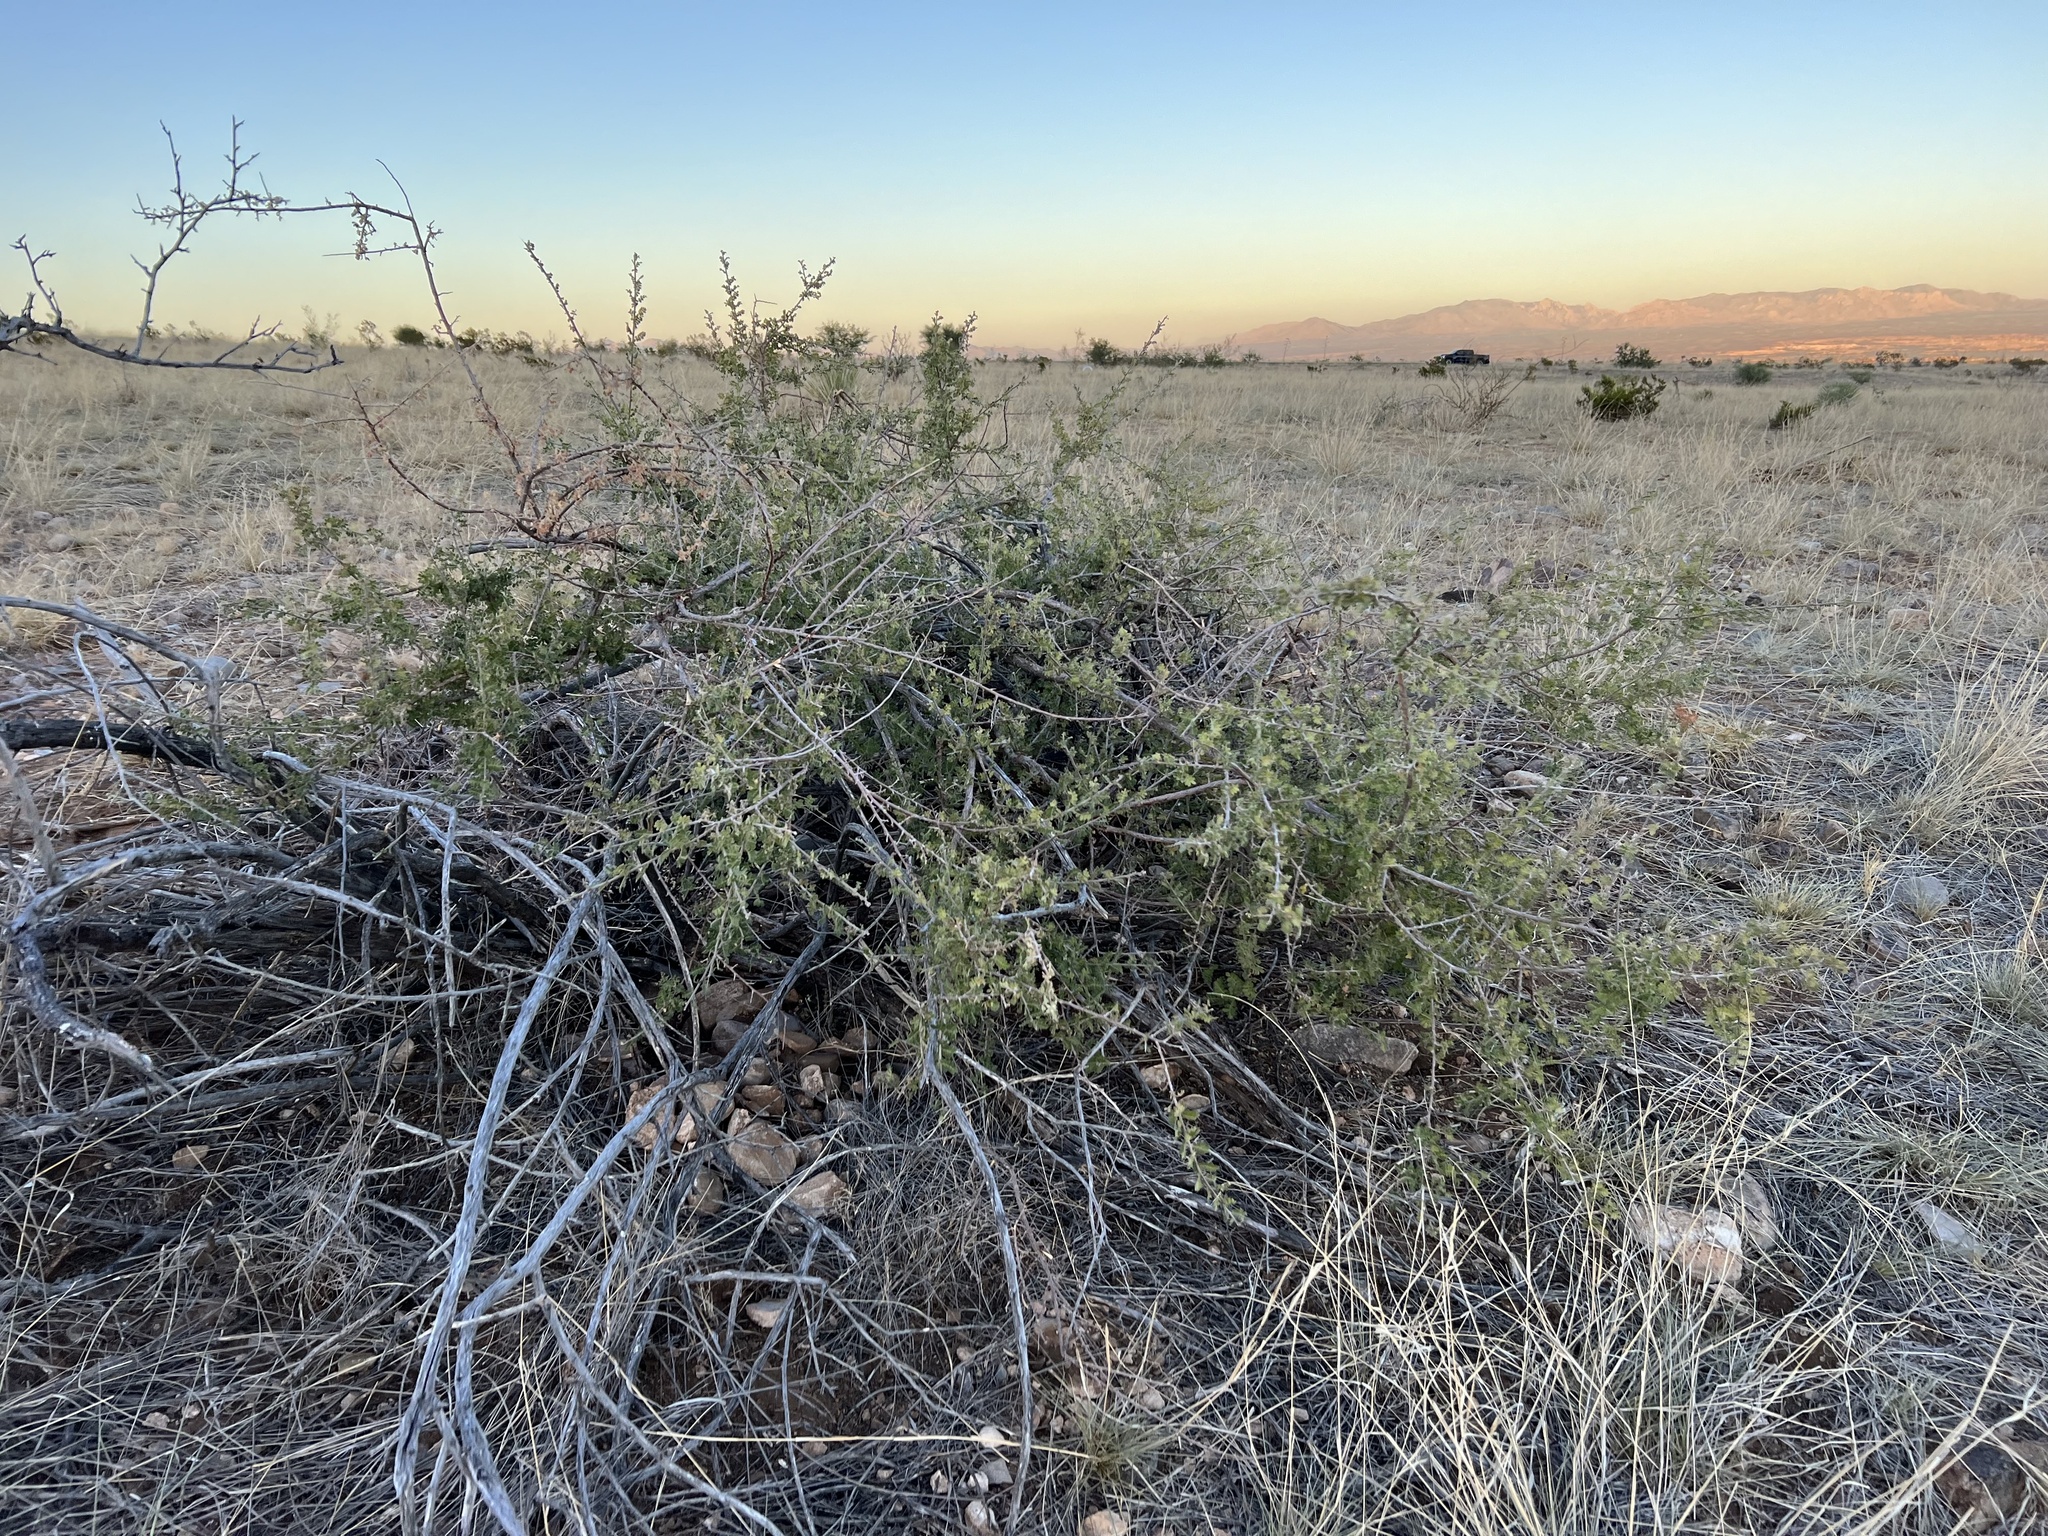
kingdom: Plantae
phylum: Tracheophyta
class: Magnoliopsida
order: Sapindales
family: Anacardiaceae
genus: Rhus
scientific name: Rhus microphylla
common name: Desert sumac
